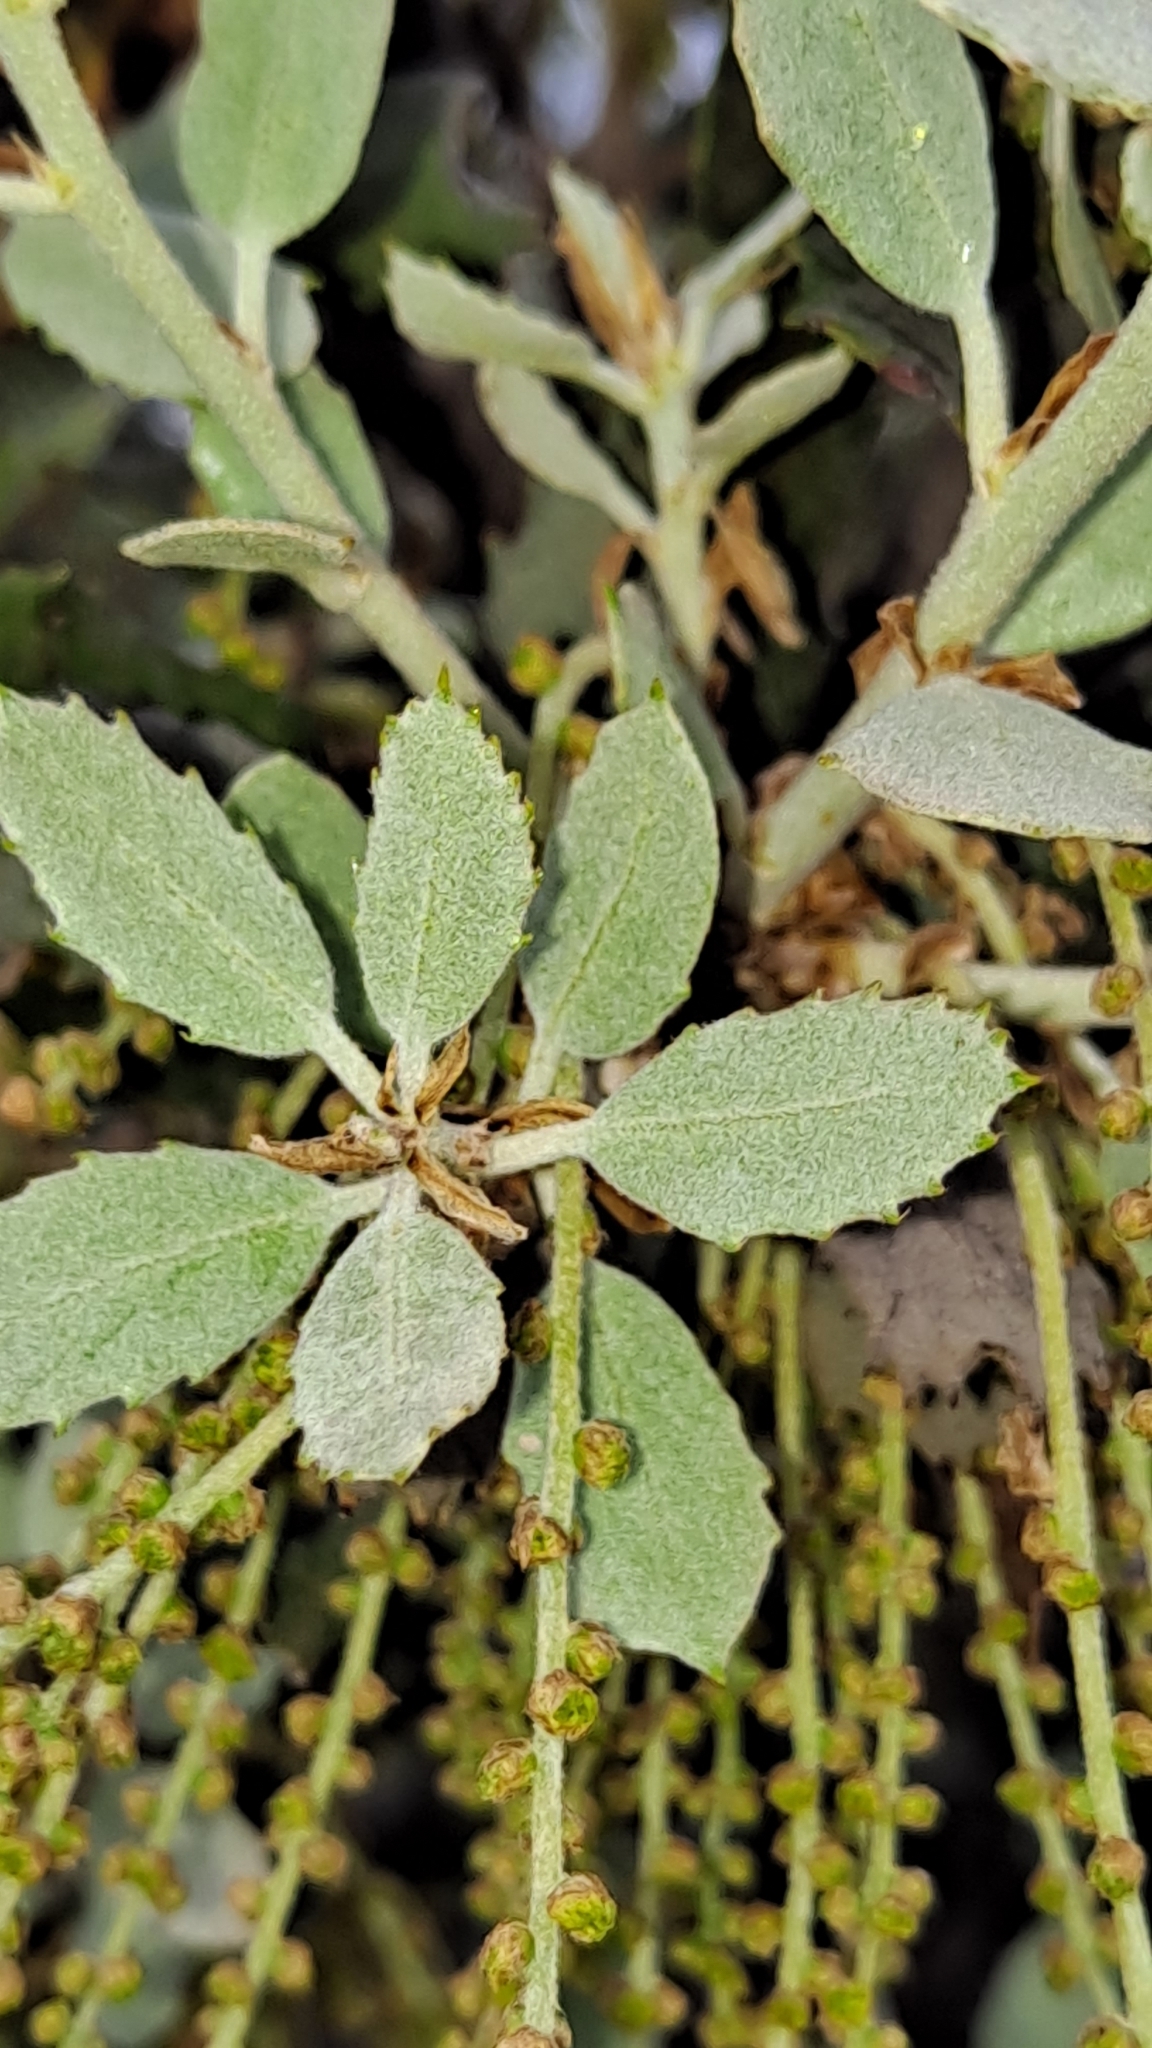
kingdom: Plantae
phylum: Tracheophyta
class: Magnoliopsida
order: Fagales
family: Fagaceae
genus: Quercus
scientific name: Quercus ilex
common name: Evergreen oak
